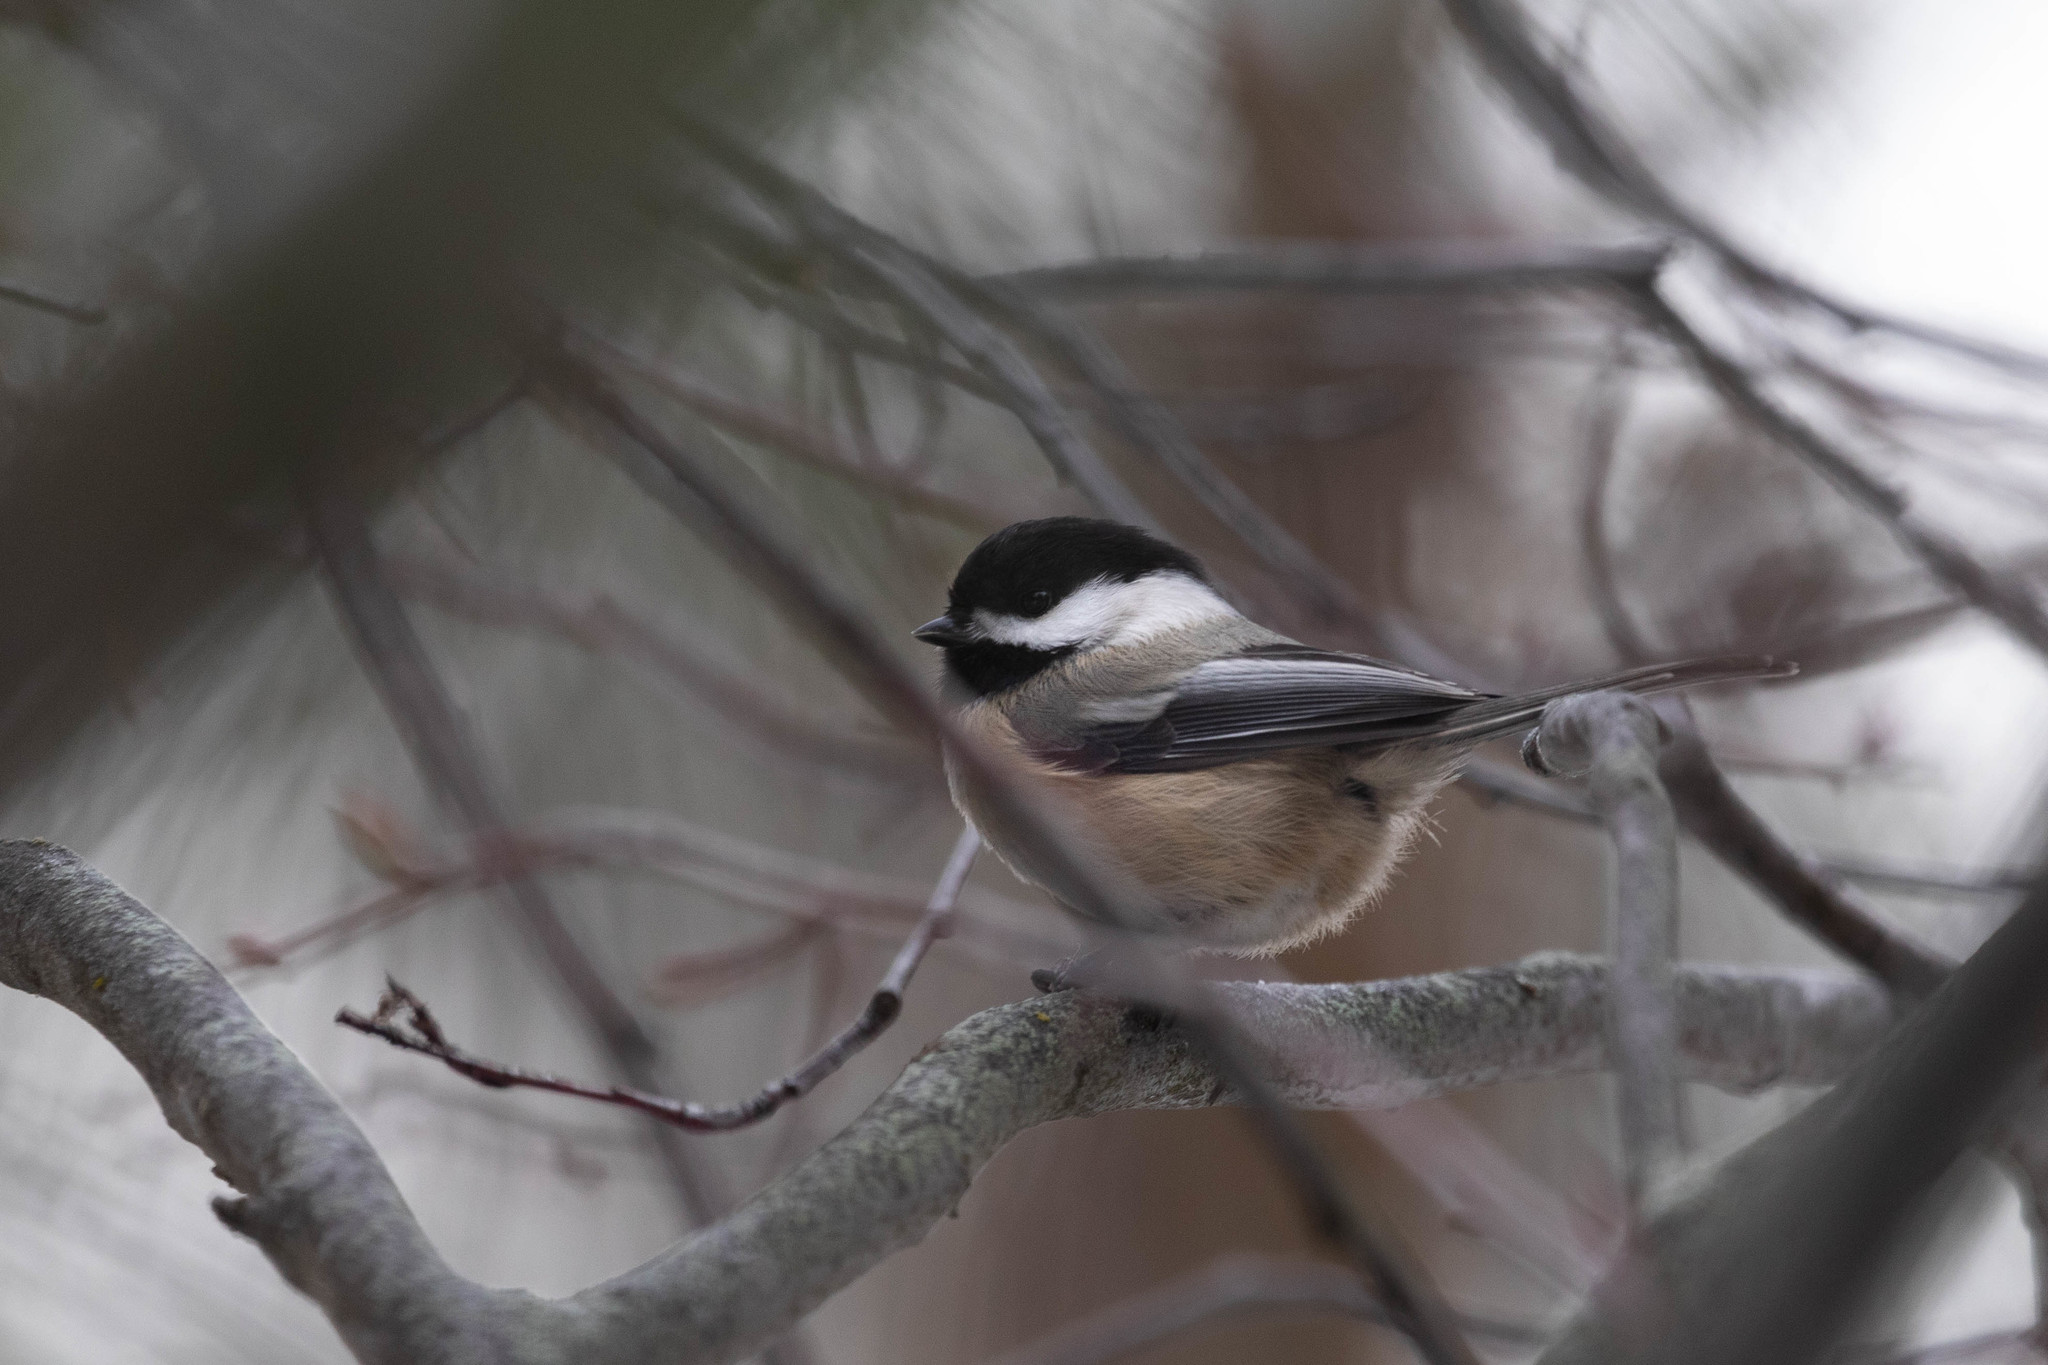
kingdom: Animalia
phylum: Chordata
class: Aves
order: Passeriformes
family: Paridae
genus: Poecile
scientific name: Poecile atricapillus
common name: Black-capped chickadee
